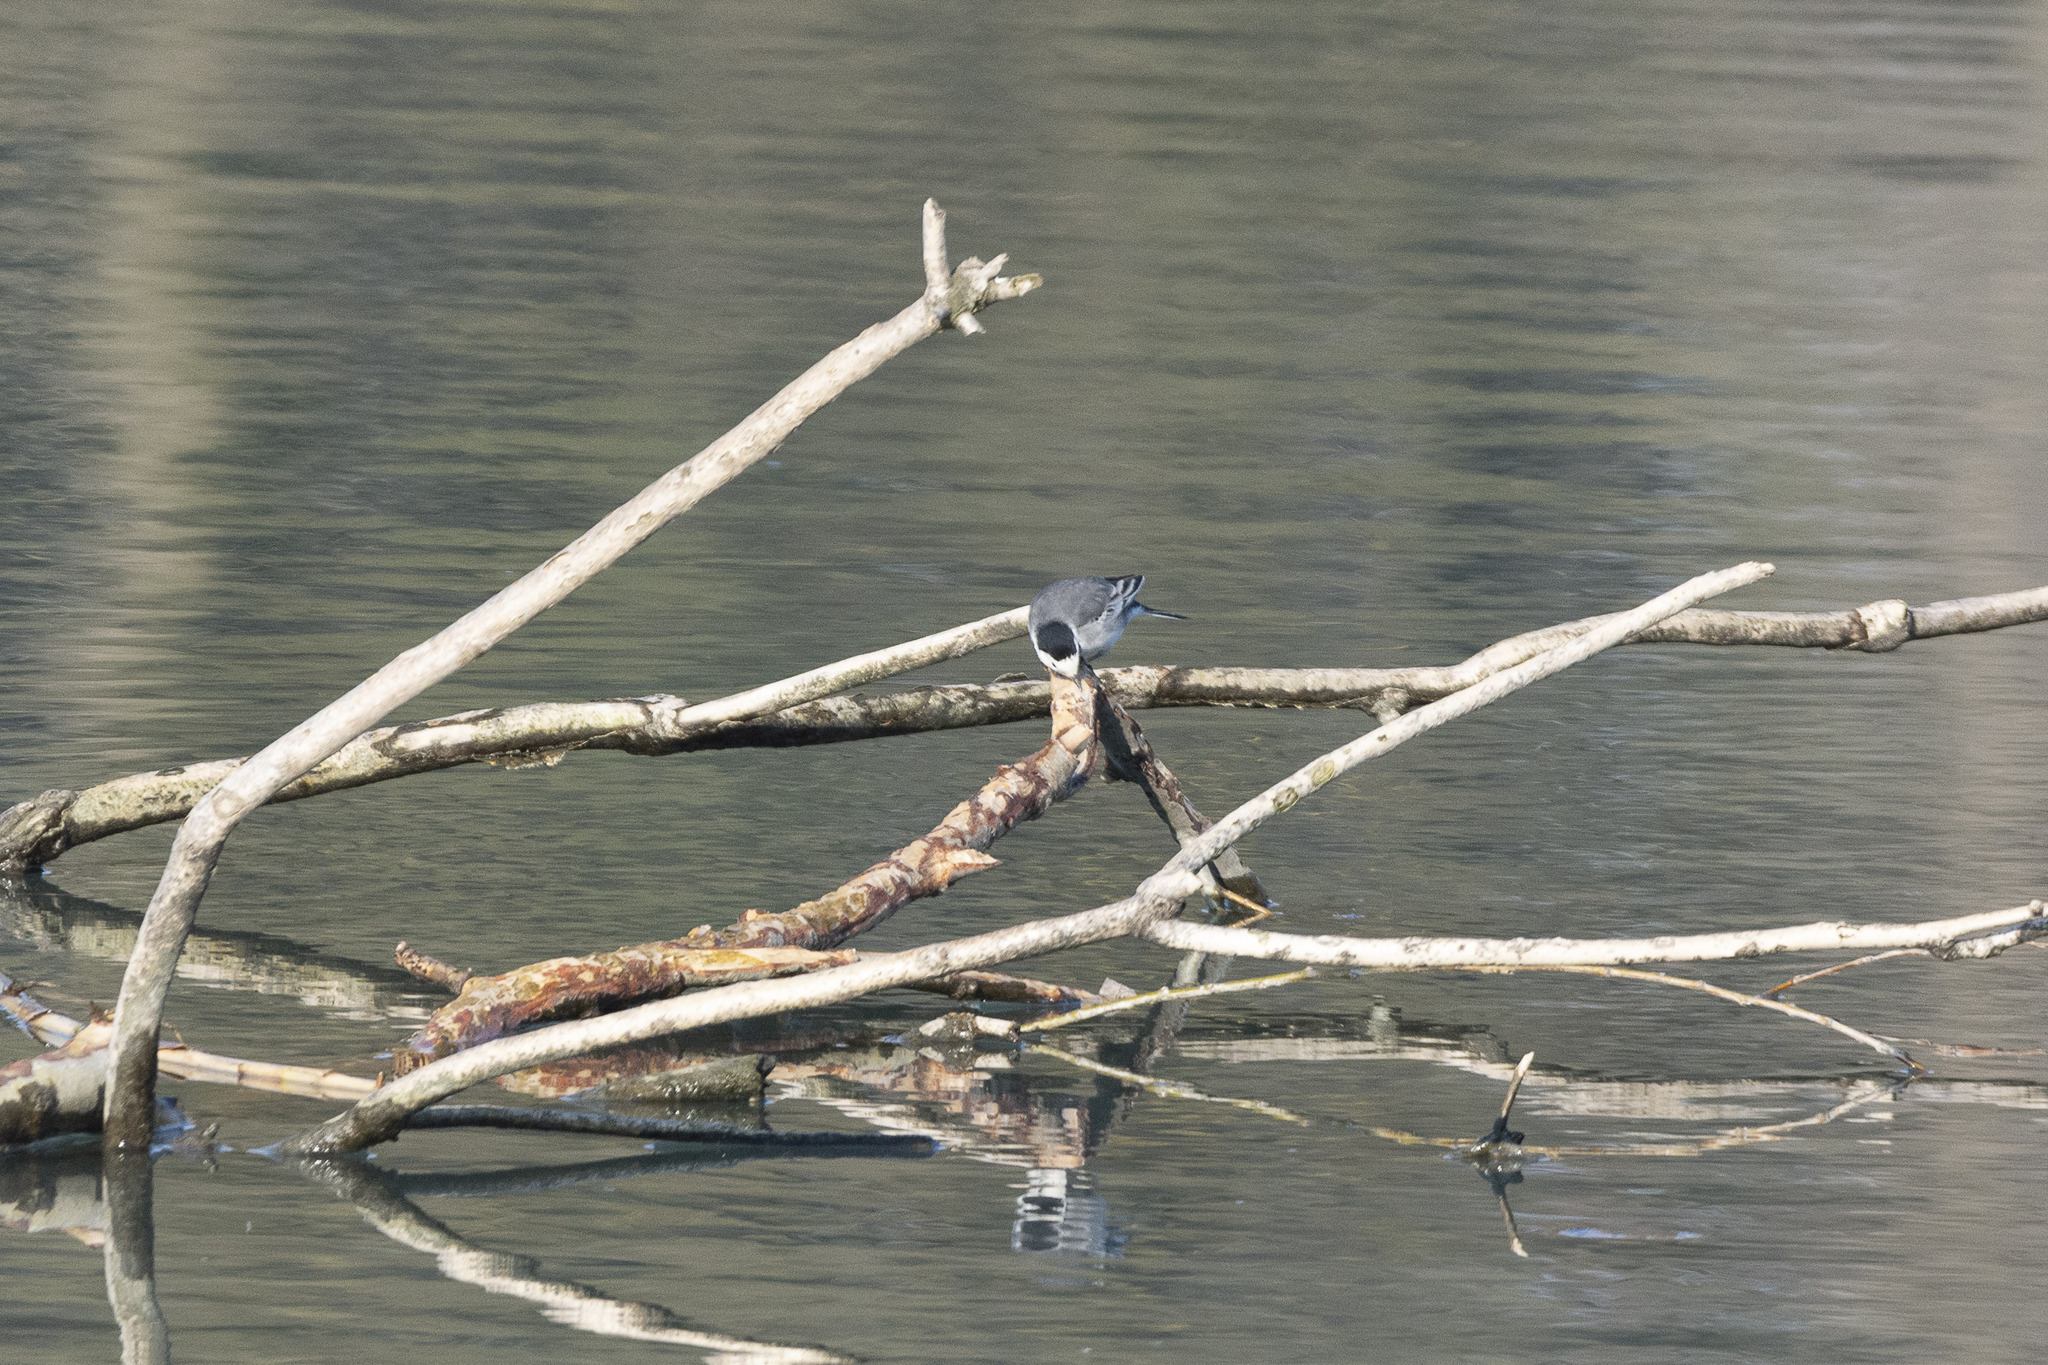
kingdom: Animalia
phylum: Chordata
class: Aves
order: Passeriformes
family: Motacillidae
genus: Motacilla
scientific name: Motacilla alba
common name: White wagtail
